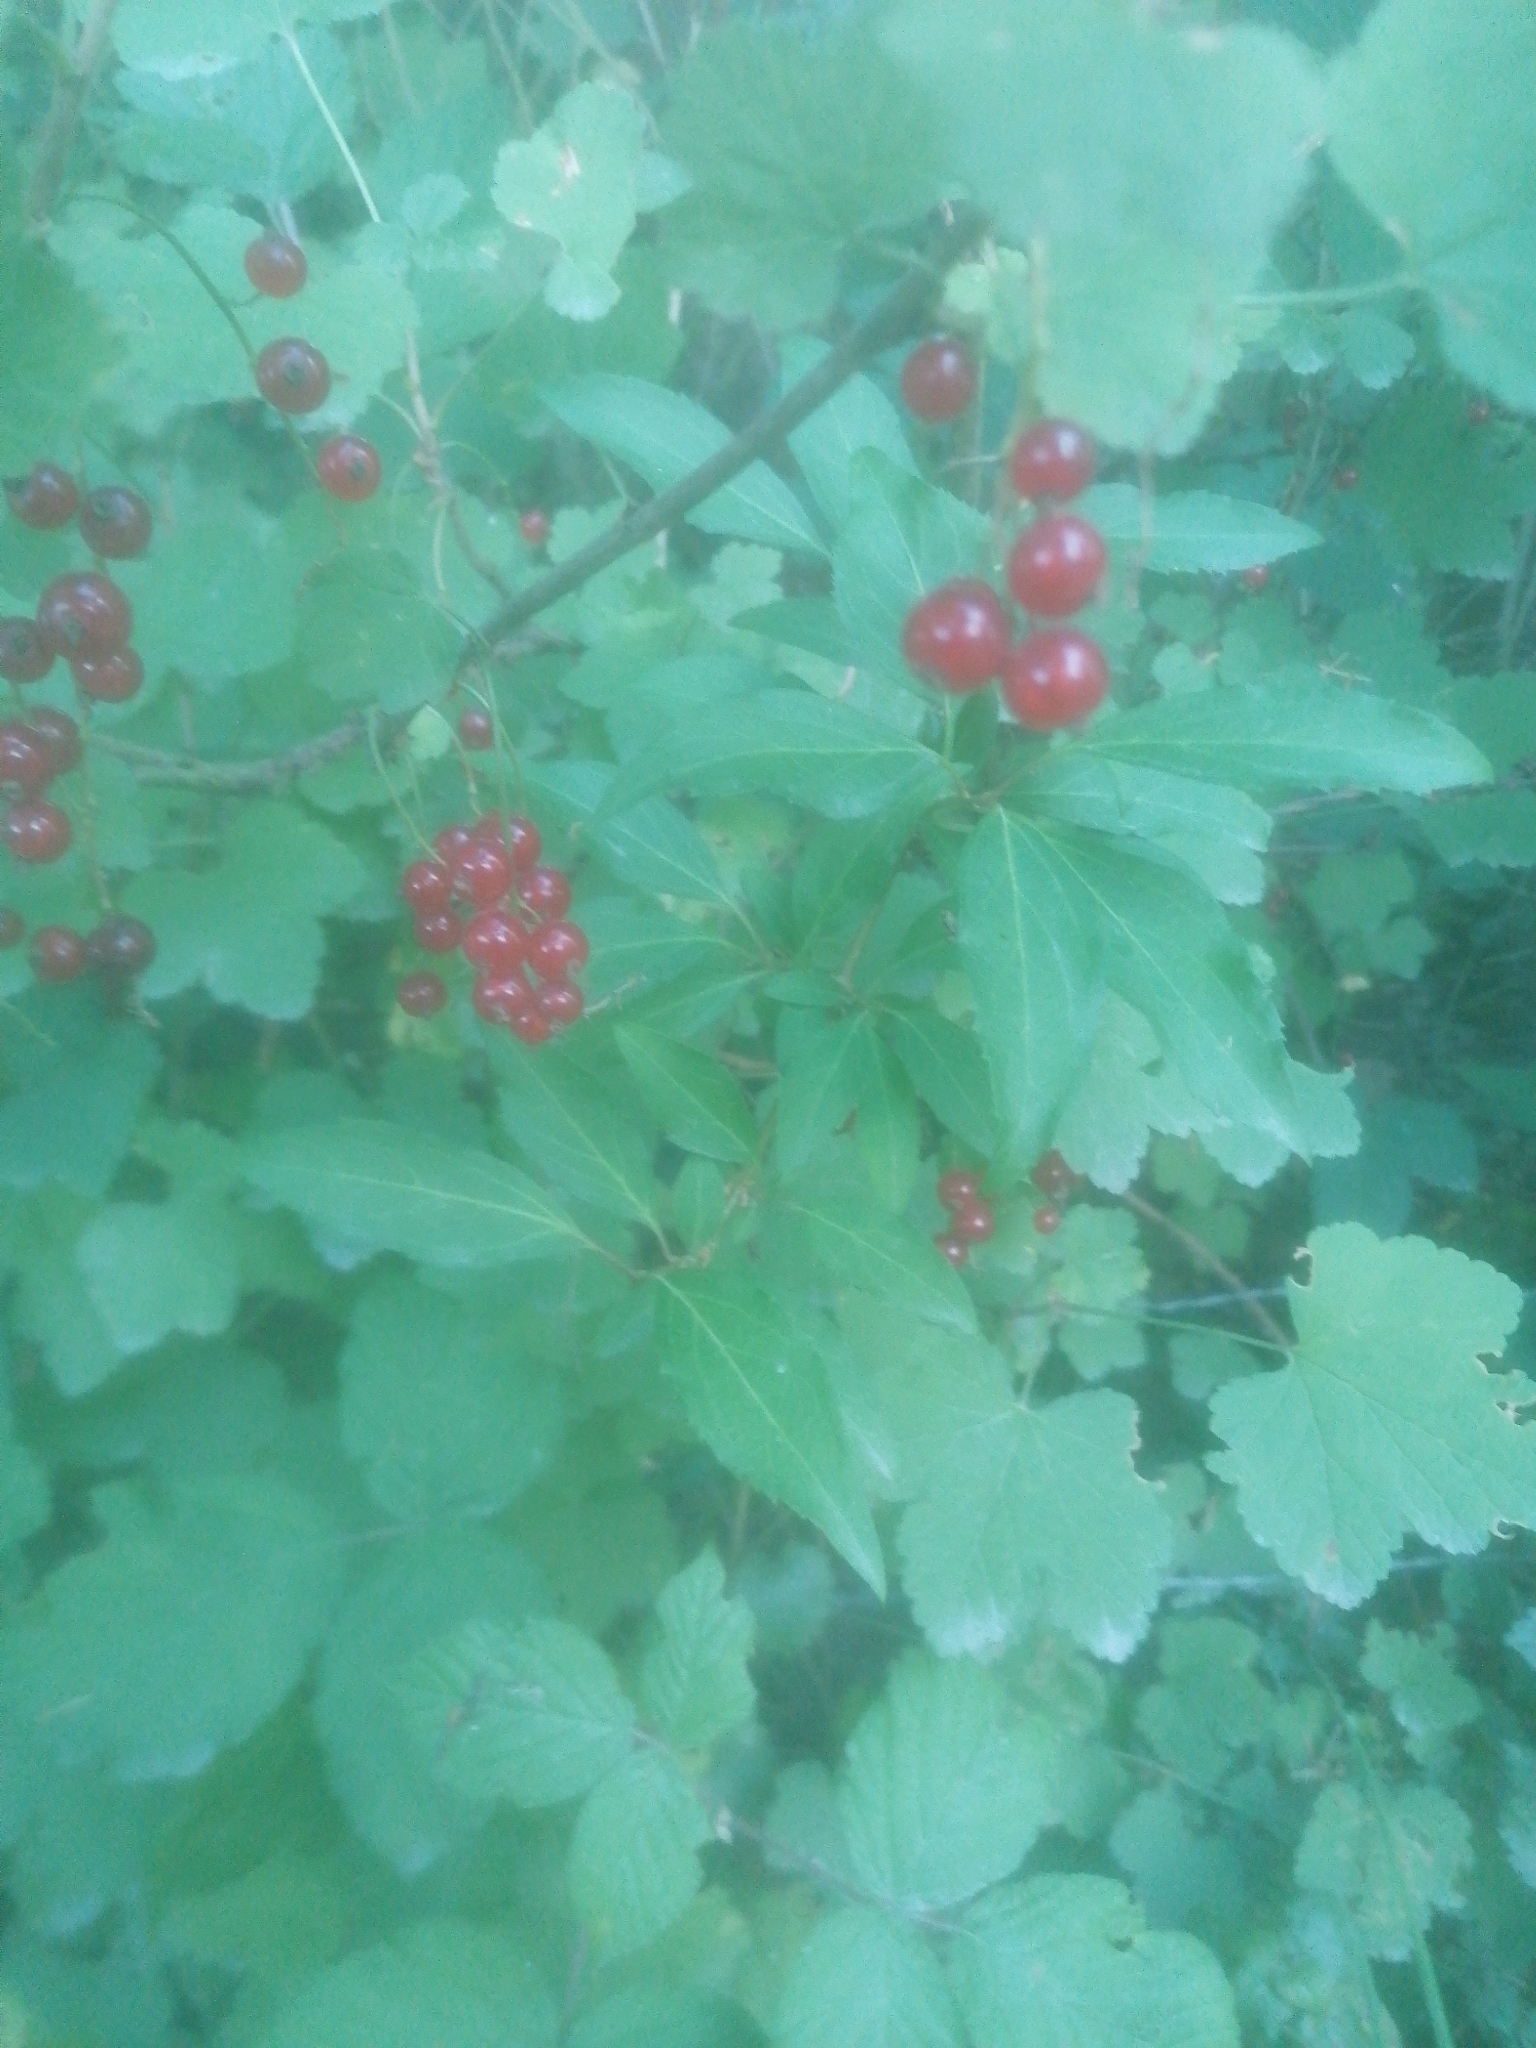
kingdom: Plantae
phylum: Tracheophyta
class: Magnoliopsida
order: Saxifragales
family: Grossulariaceae
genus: Ribes
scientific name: Ribes rubrum
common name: Red currant
